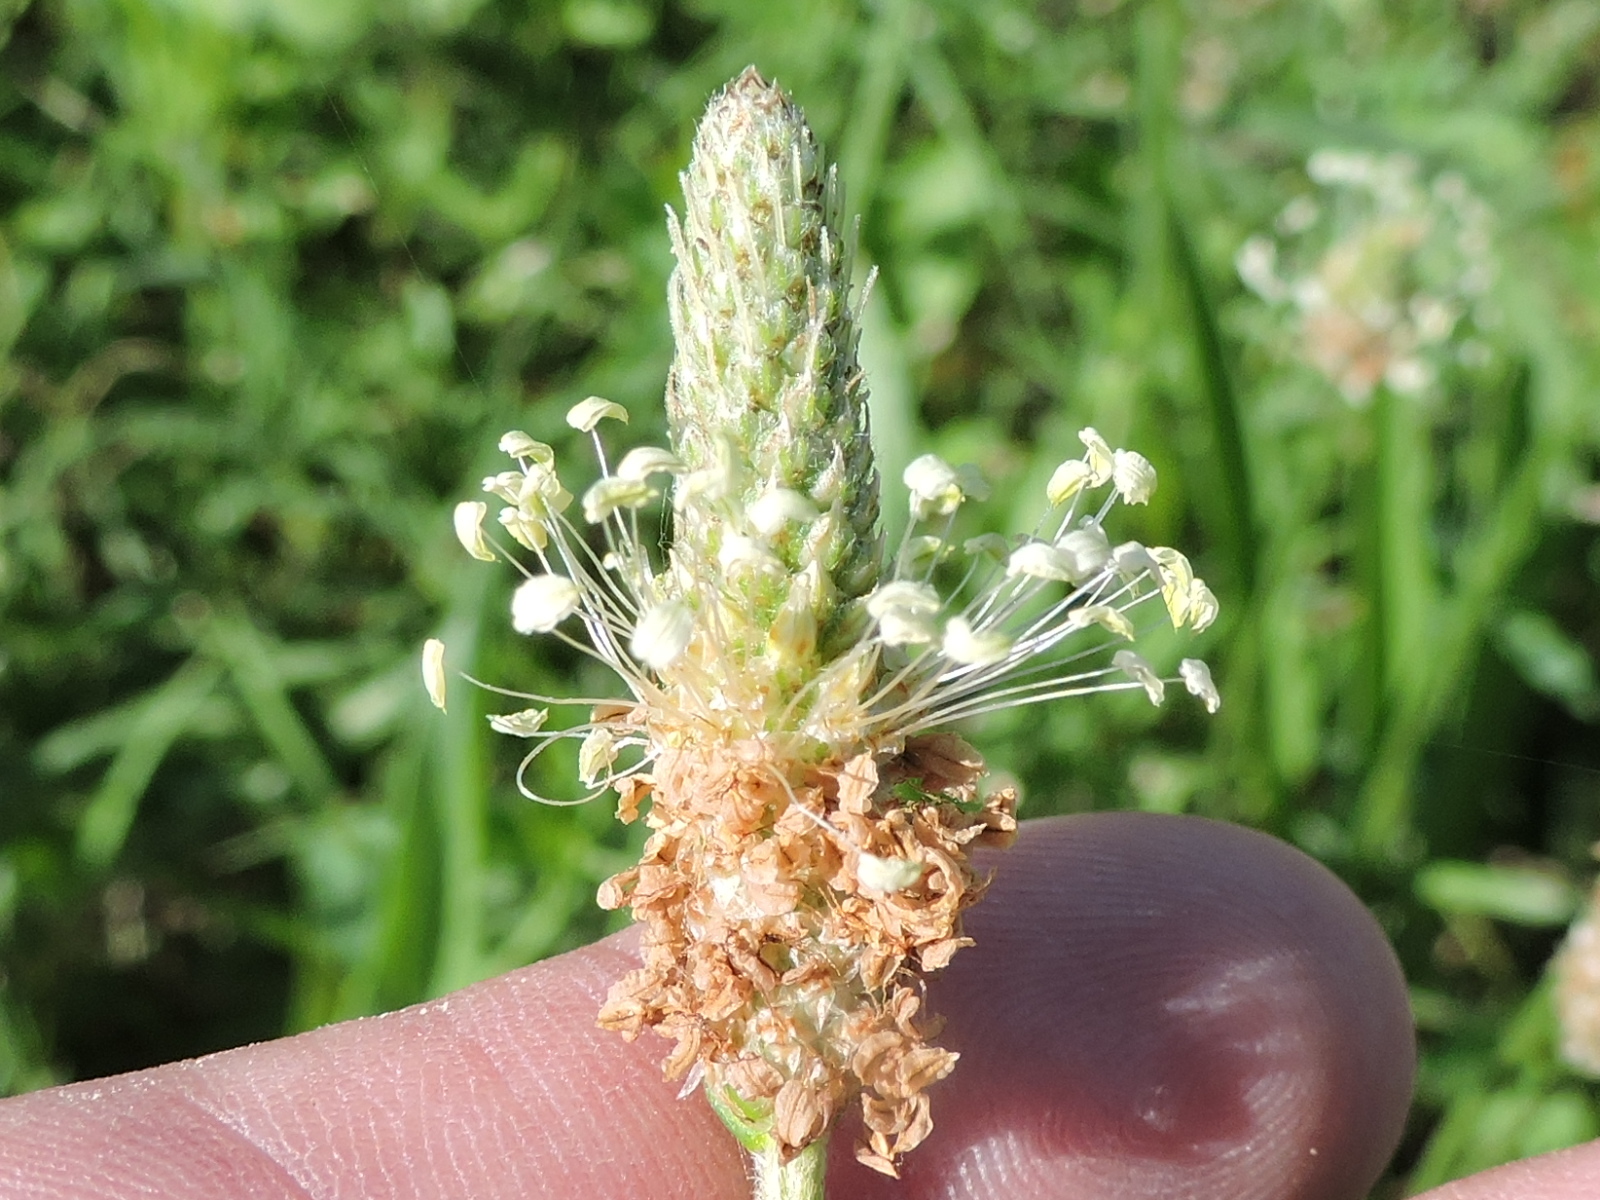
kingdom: Plantae
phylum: Tracheophyta
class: Magnoliopsida
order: Lamiales
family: Plantaginaceae
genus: Plantago
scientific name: Plantago lanceolata
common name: Ribwort plantain
